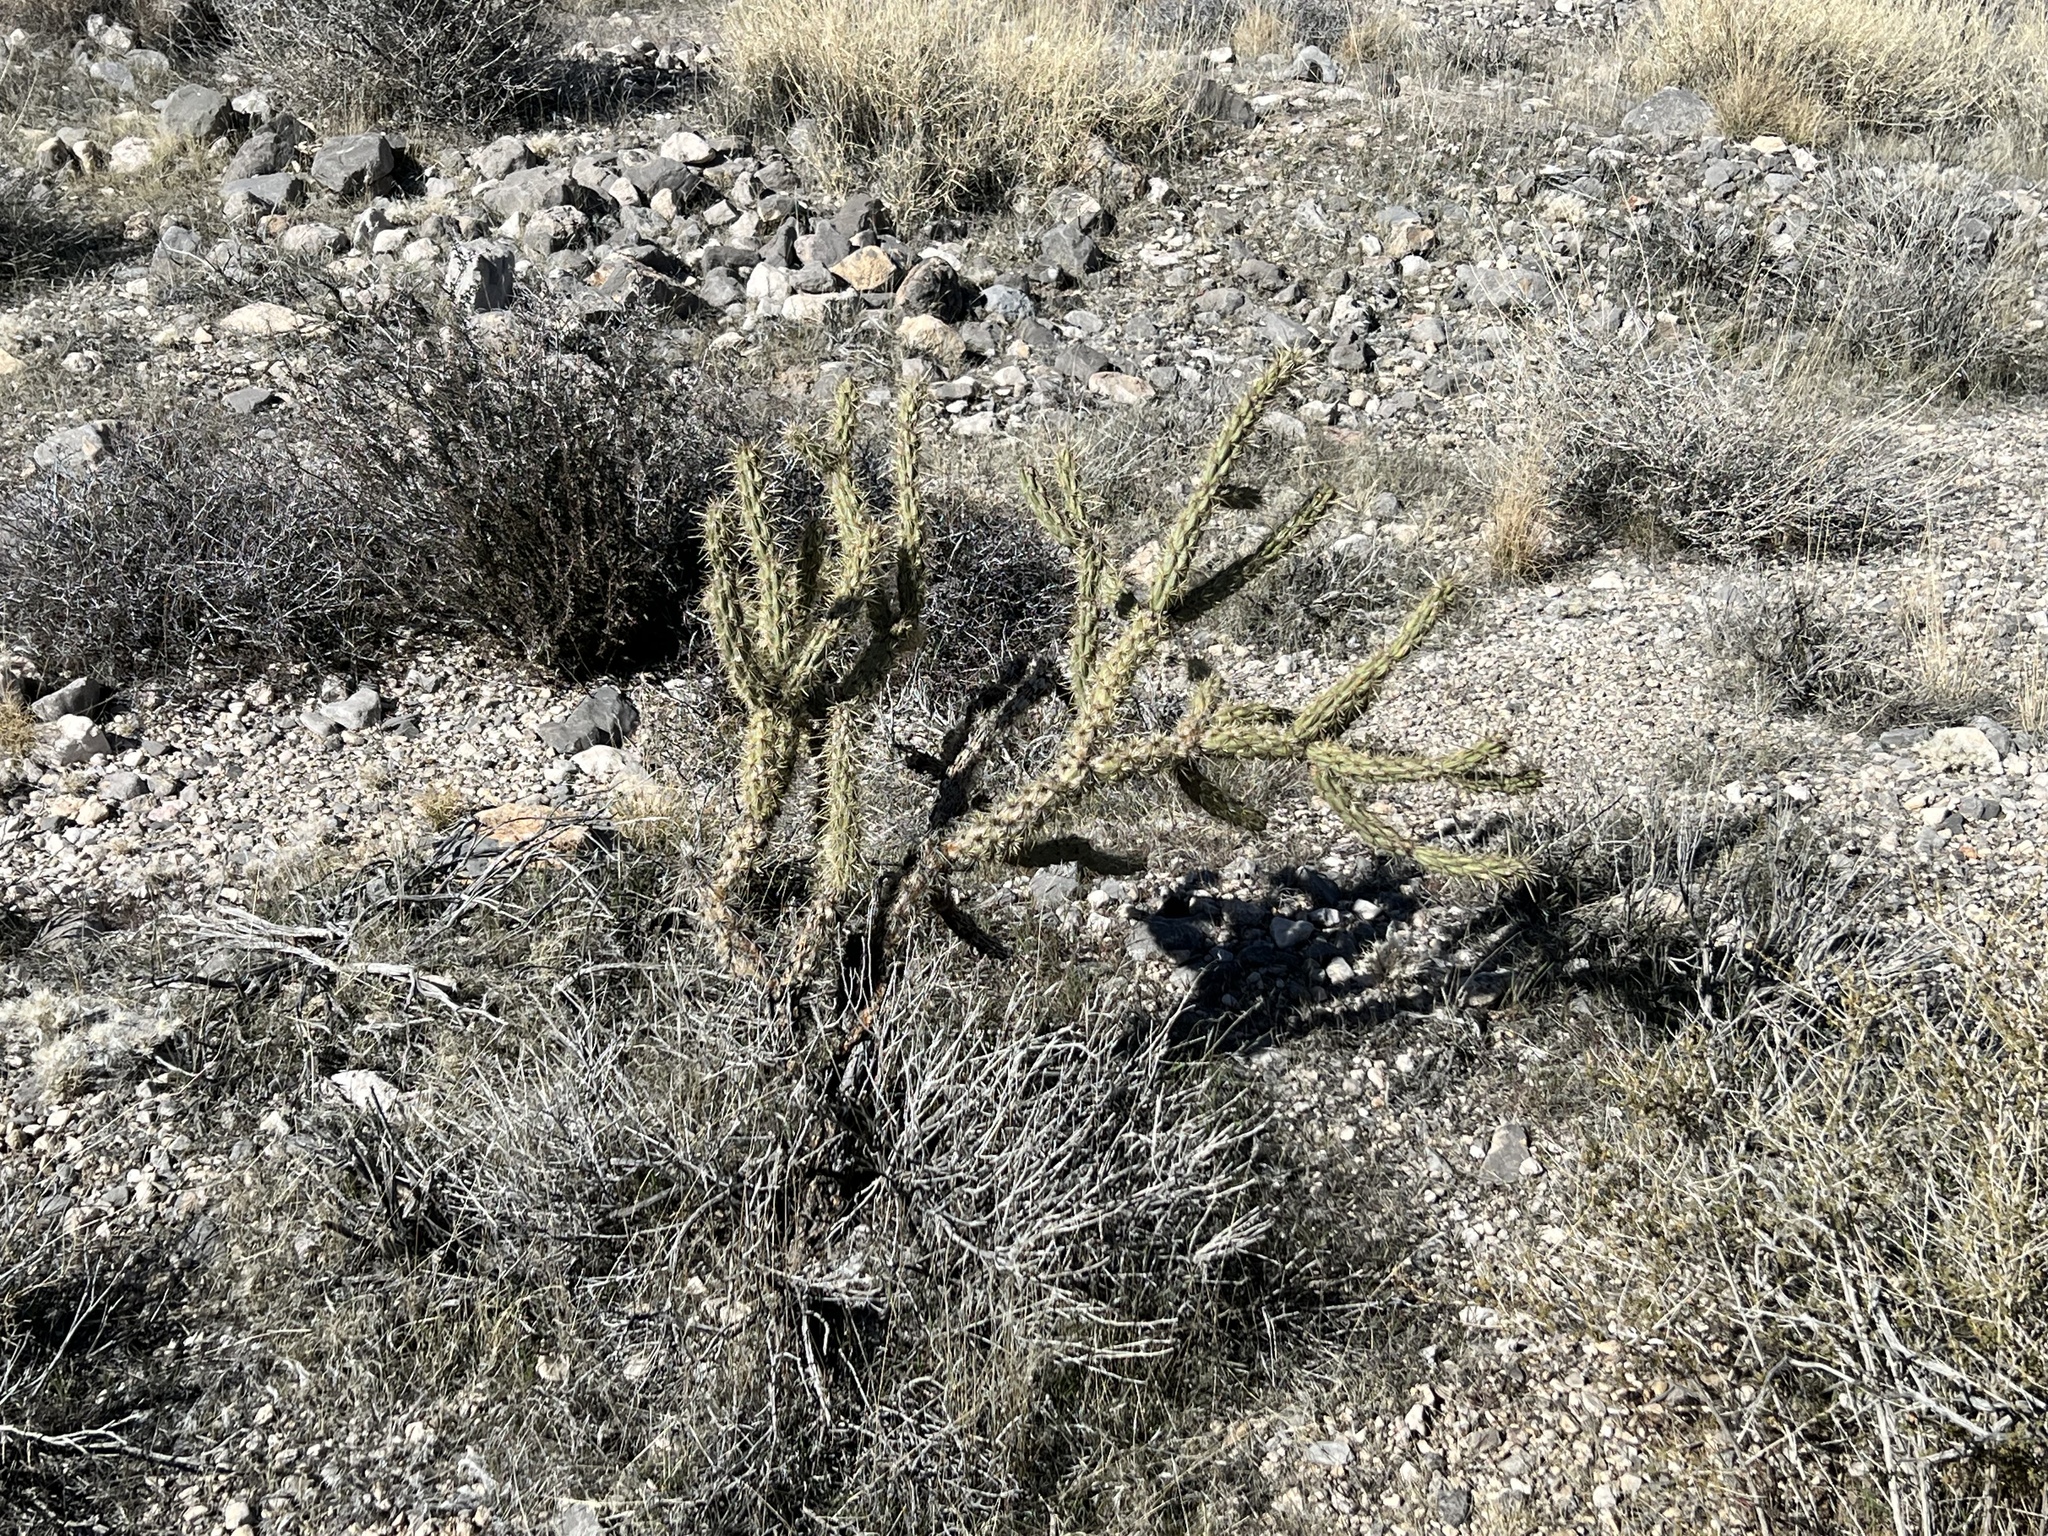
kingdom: Plantae
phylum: Tracheophyta
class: Magnoliopsida
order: Caryophyllales
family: Cactaceae
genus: Cylindropuntia
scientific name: Cylindropuntia acanthocarpa
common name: Buckhorn cholla
